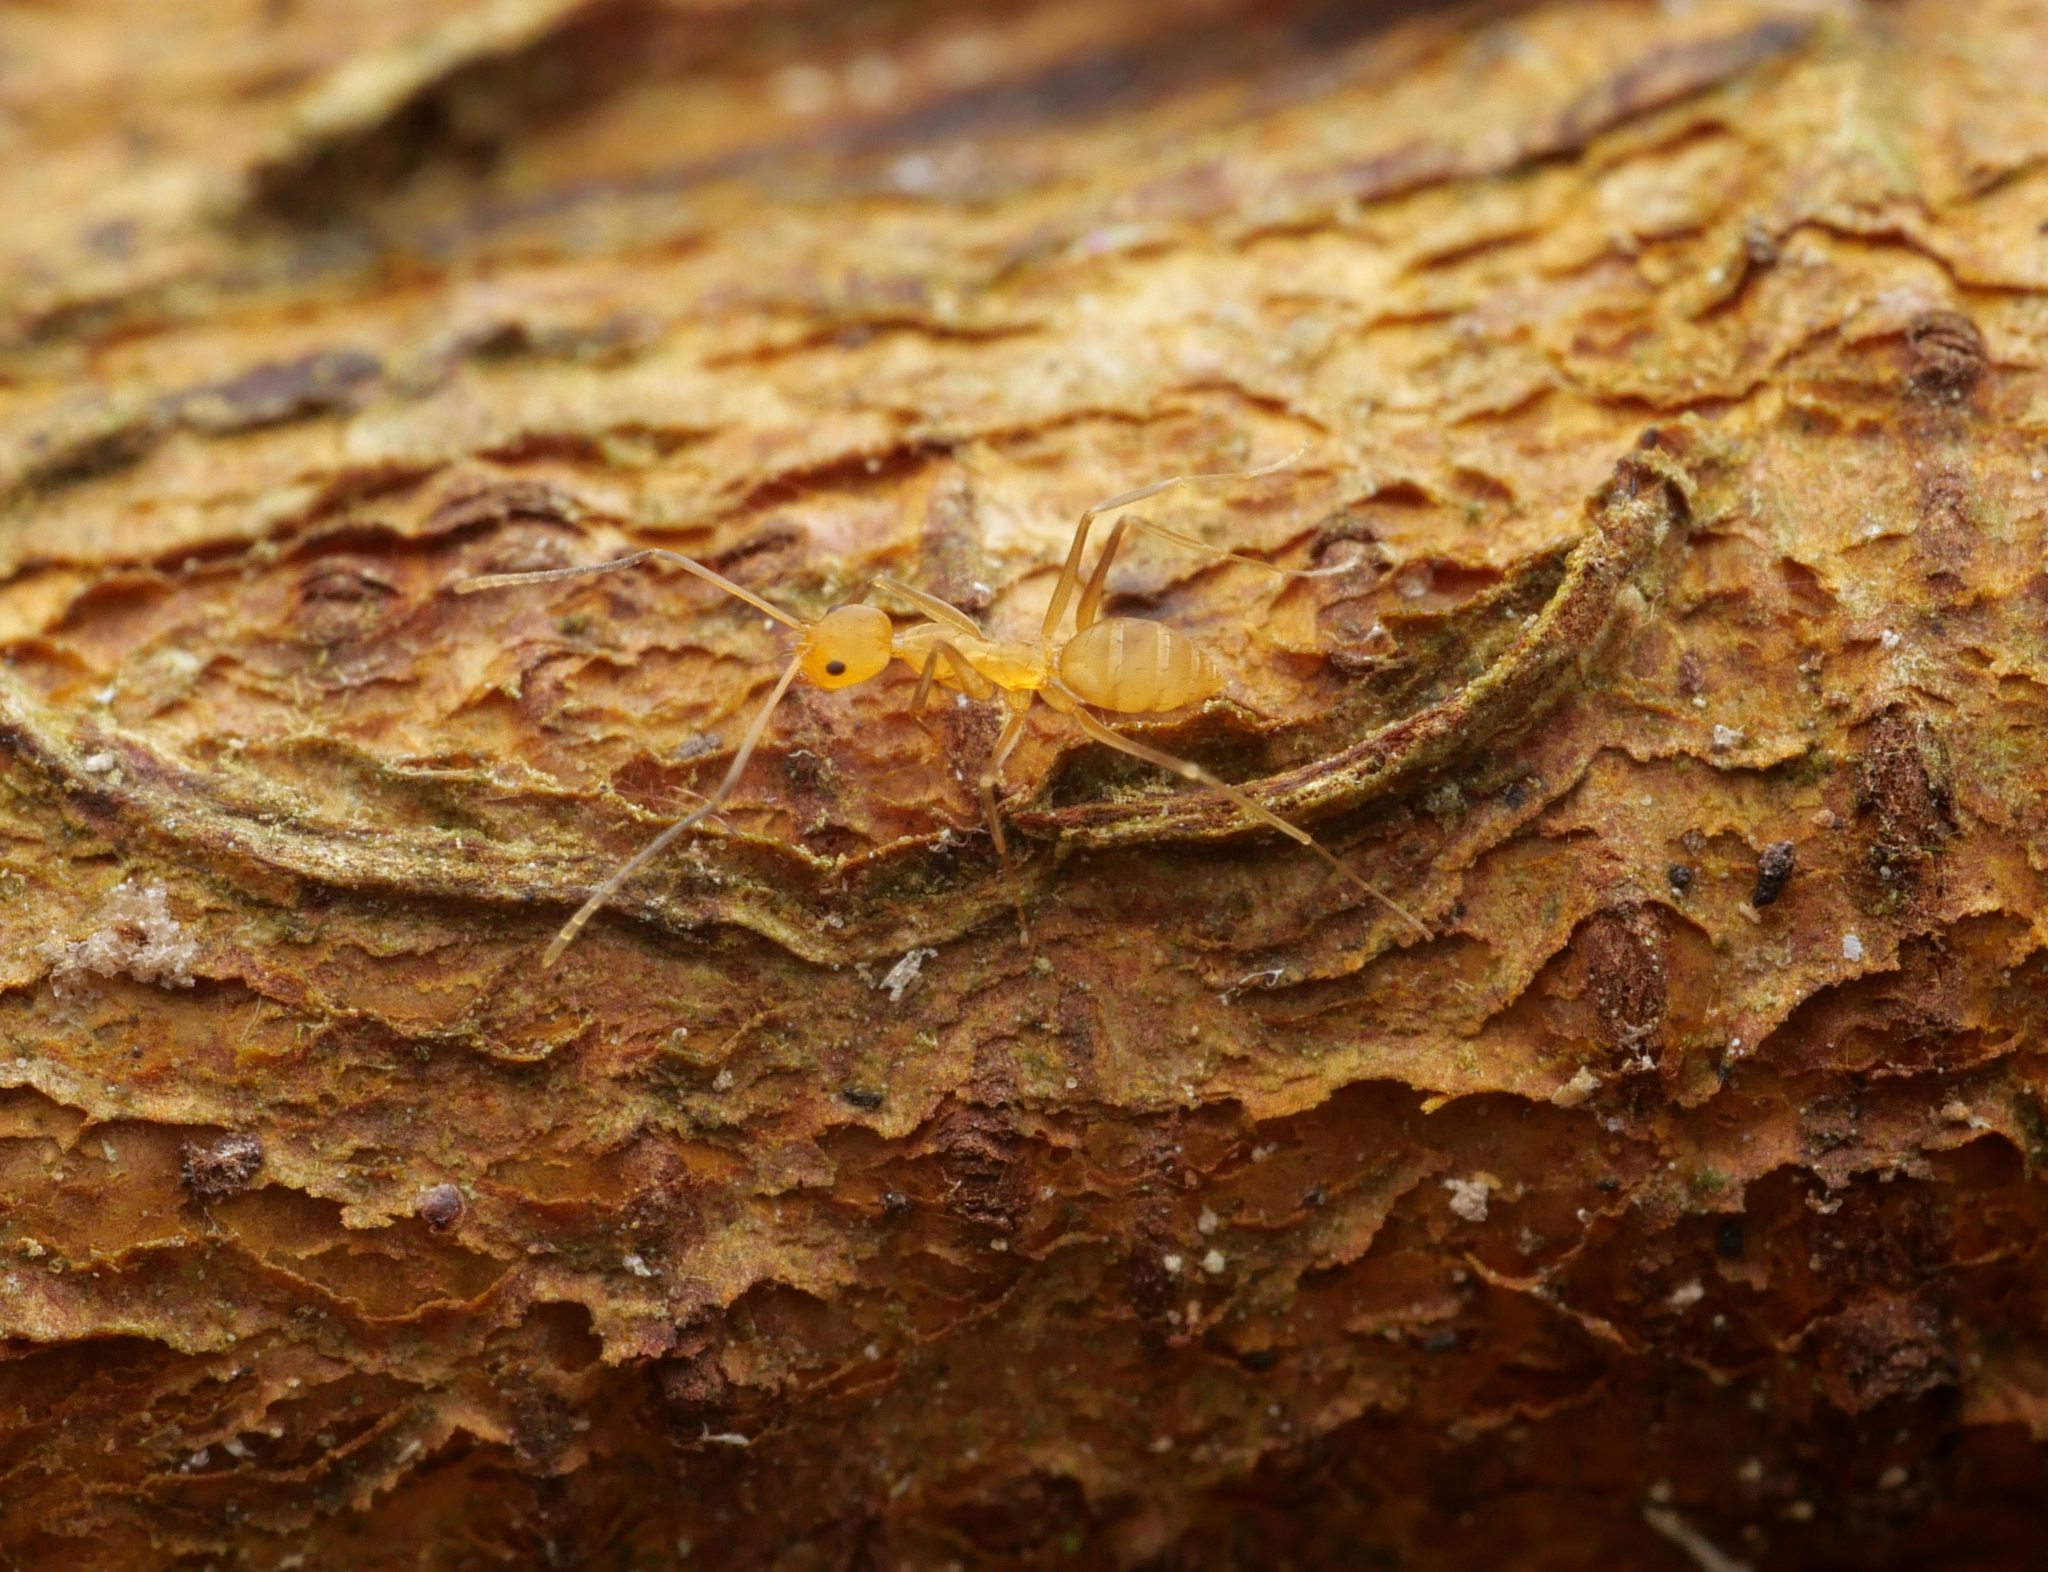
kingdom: Animalia
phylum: Arthropoda
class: Insecta
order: Hymenoptera
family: Formicidae
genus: Paraparatrechina
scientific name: Paraparatrechina pallida
